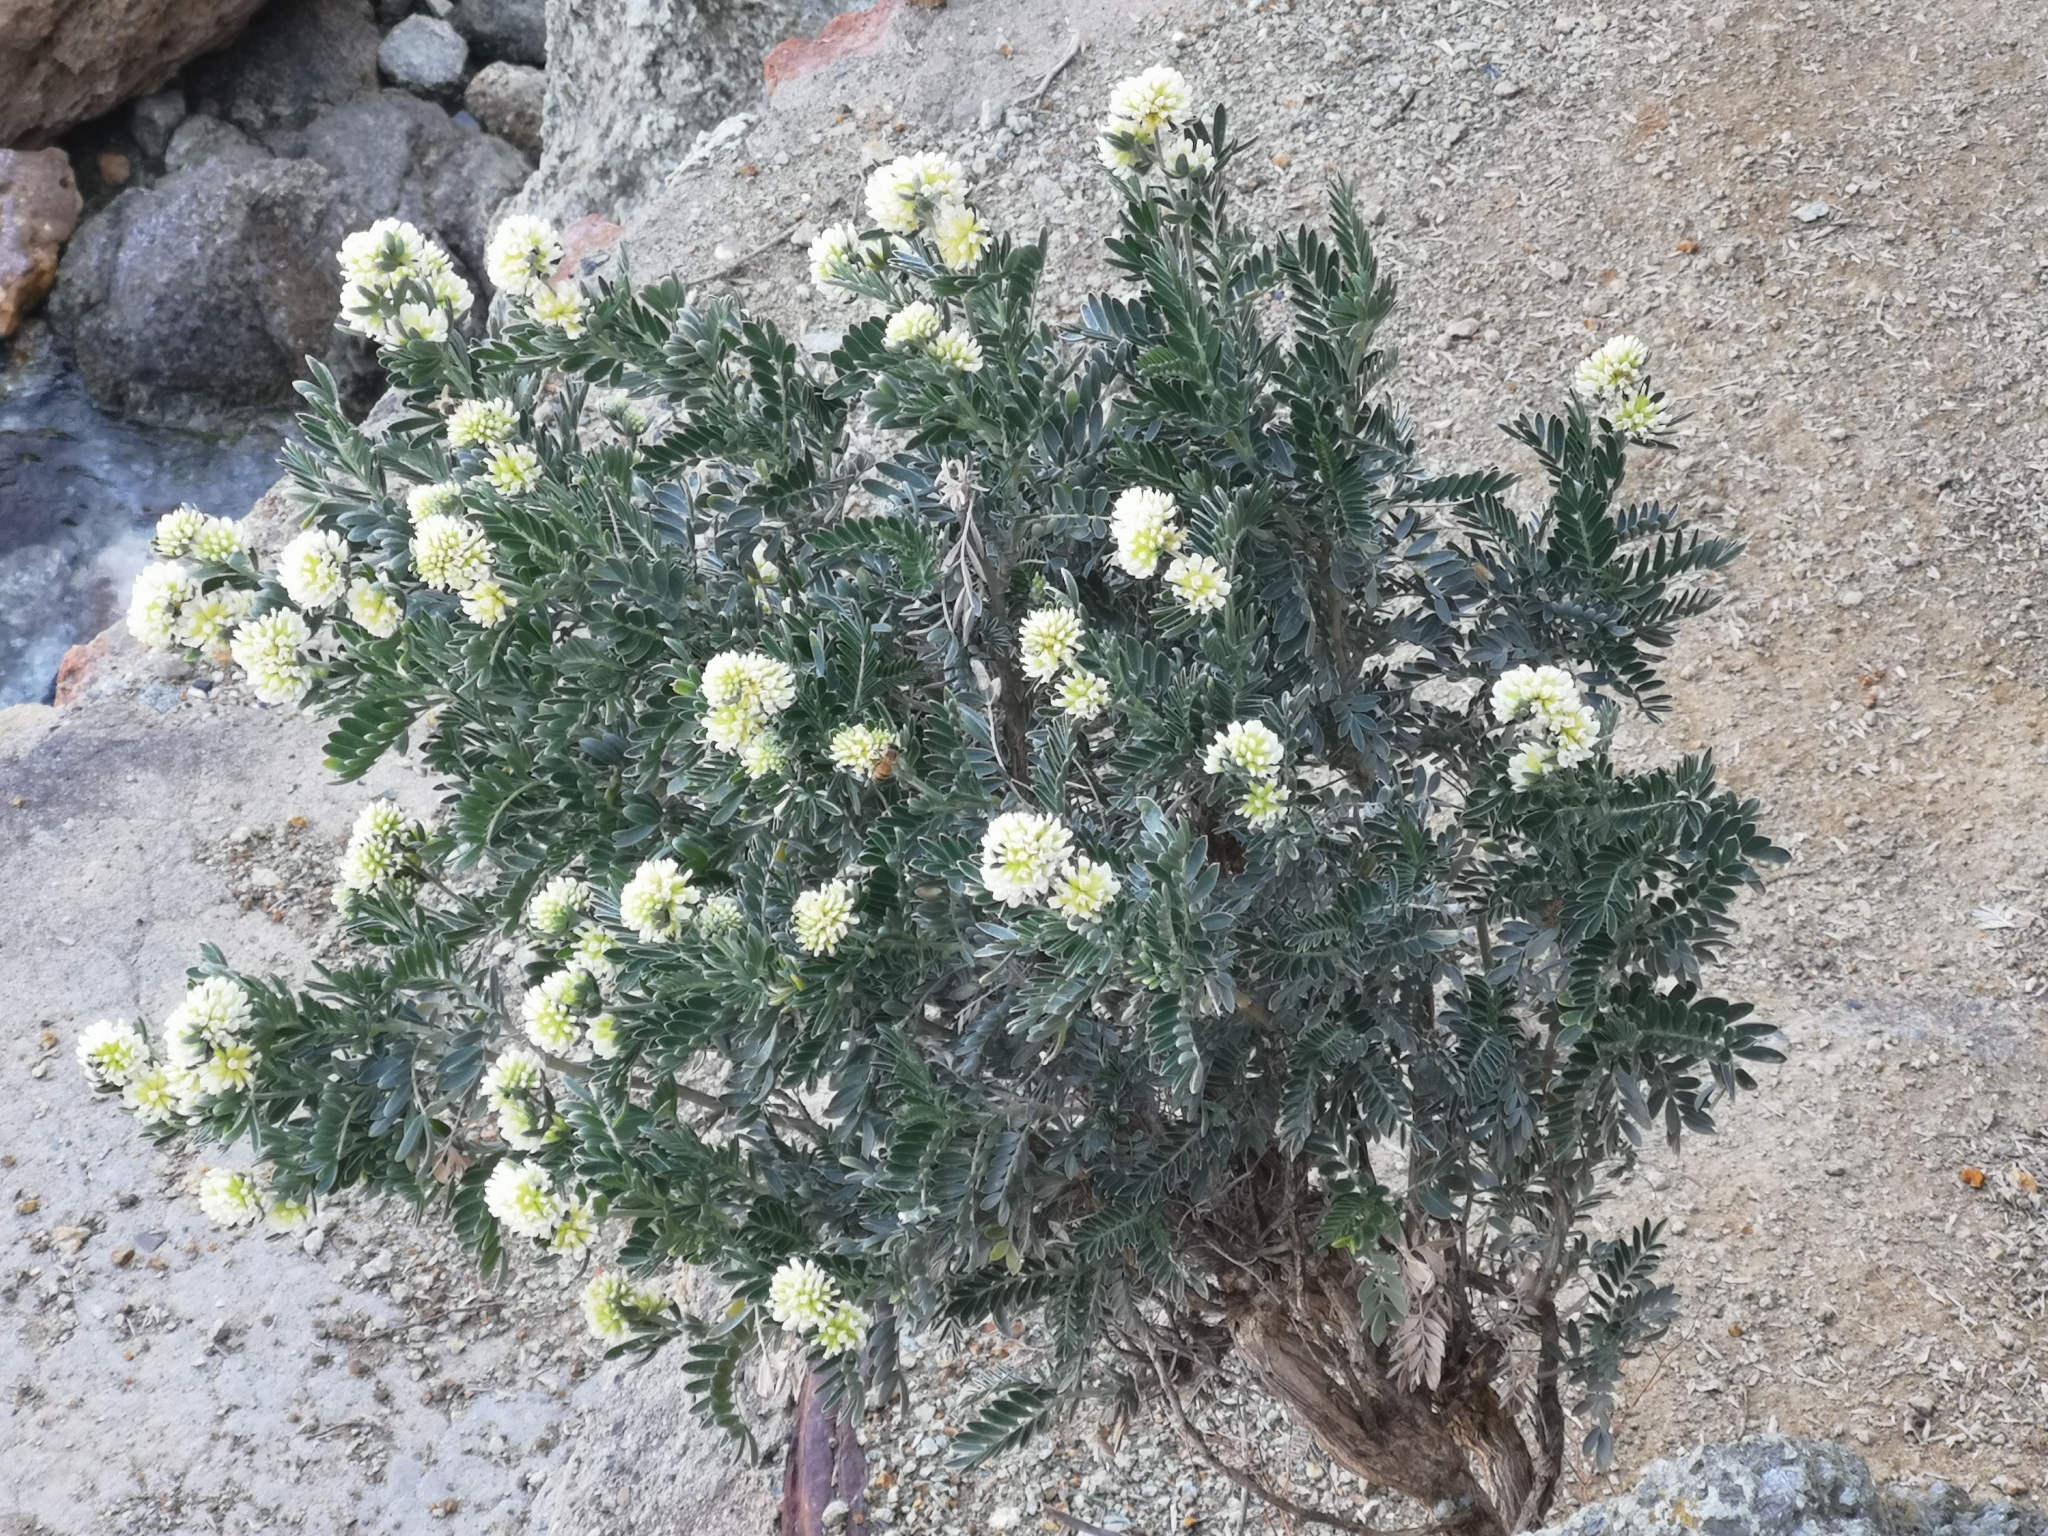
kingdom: Plantae
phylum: Tracheophyta
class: Magnoliopsida
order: Fabales
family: Fabaceae
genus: Anthyllis
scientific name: Anthyllis barba-jovis
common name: Jupiter's-beard
